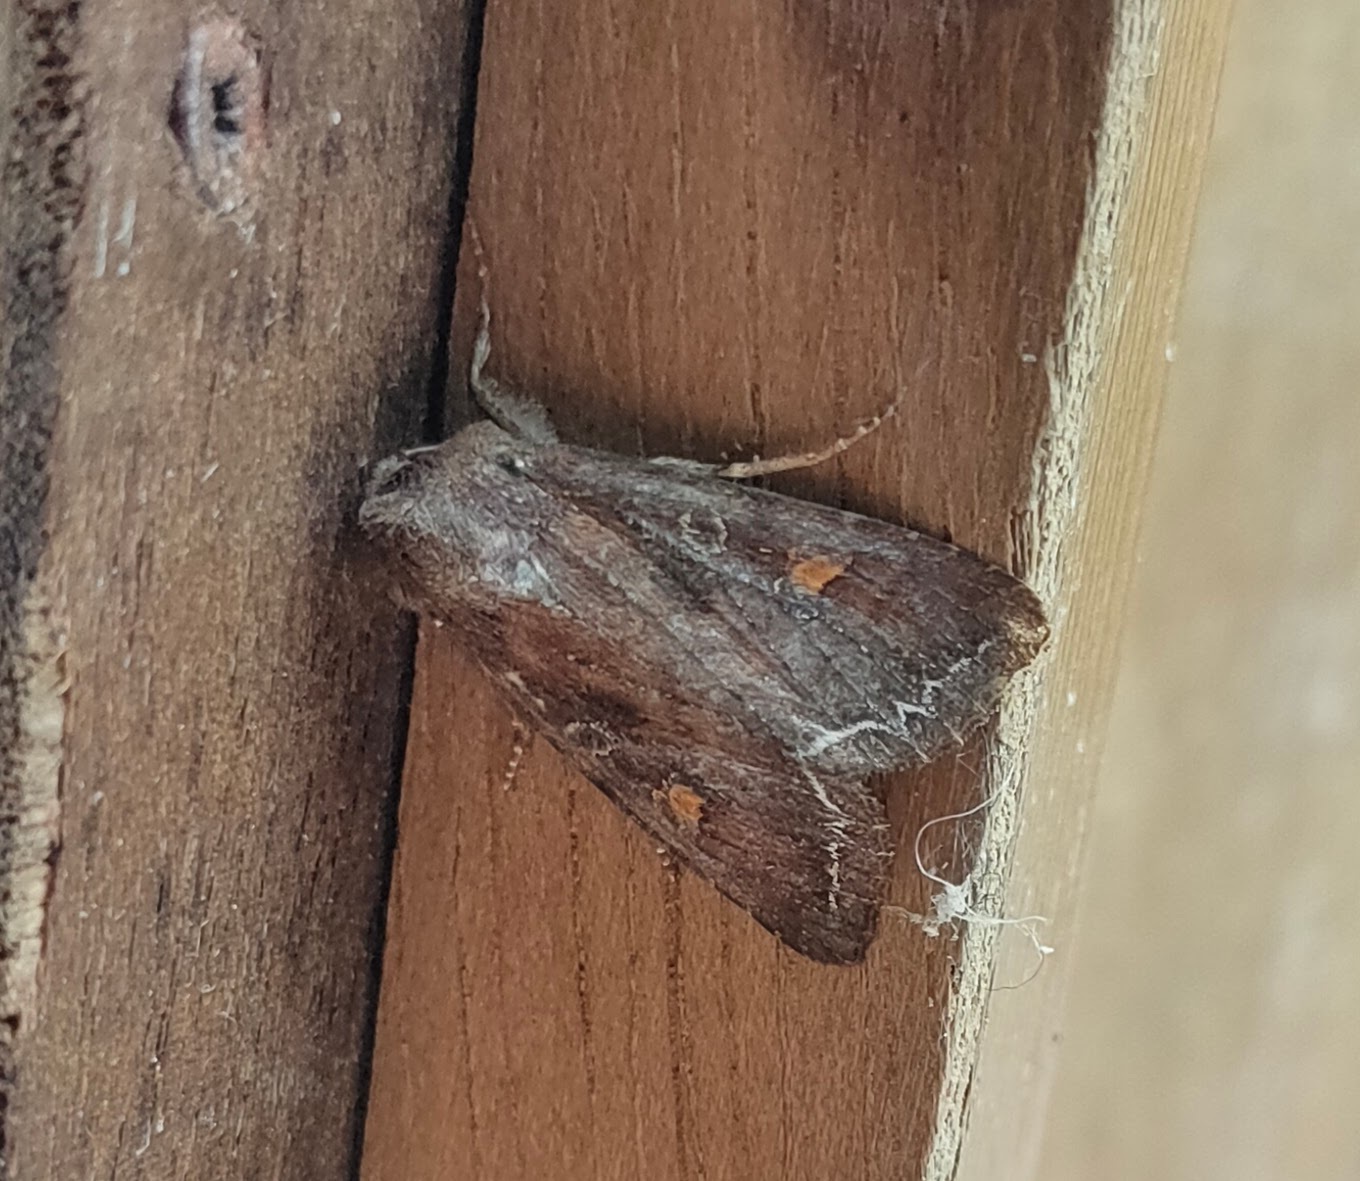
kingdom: Animalia
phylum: Arthropoda
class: Insecta
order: Lepidoptera
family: Noctuidae
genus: Lacanobia
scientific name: Lacanobia oleracea
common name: Bright-line brown-eye
